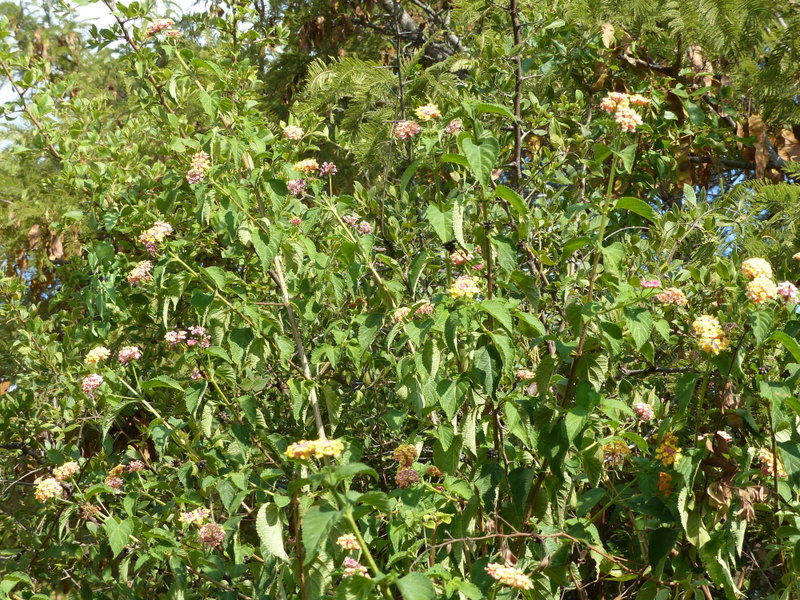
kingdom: Plantae
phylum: Tracheophyta
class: Magnoliopsida
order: Lamiales
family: Verbenaceae
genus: Lantana
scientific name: Lantana camara
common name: Lantana
